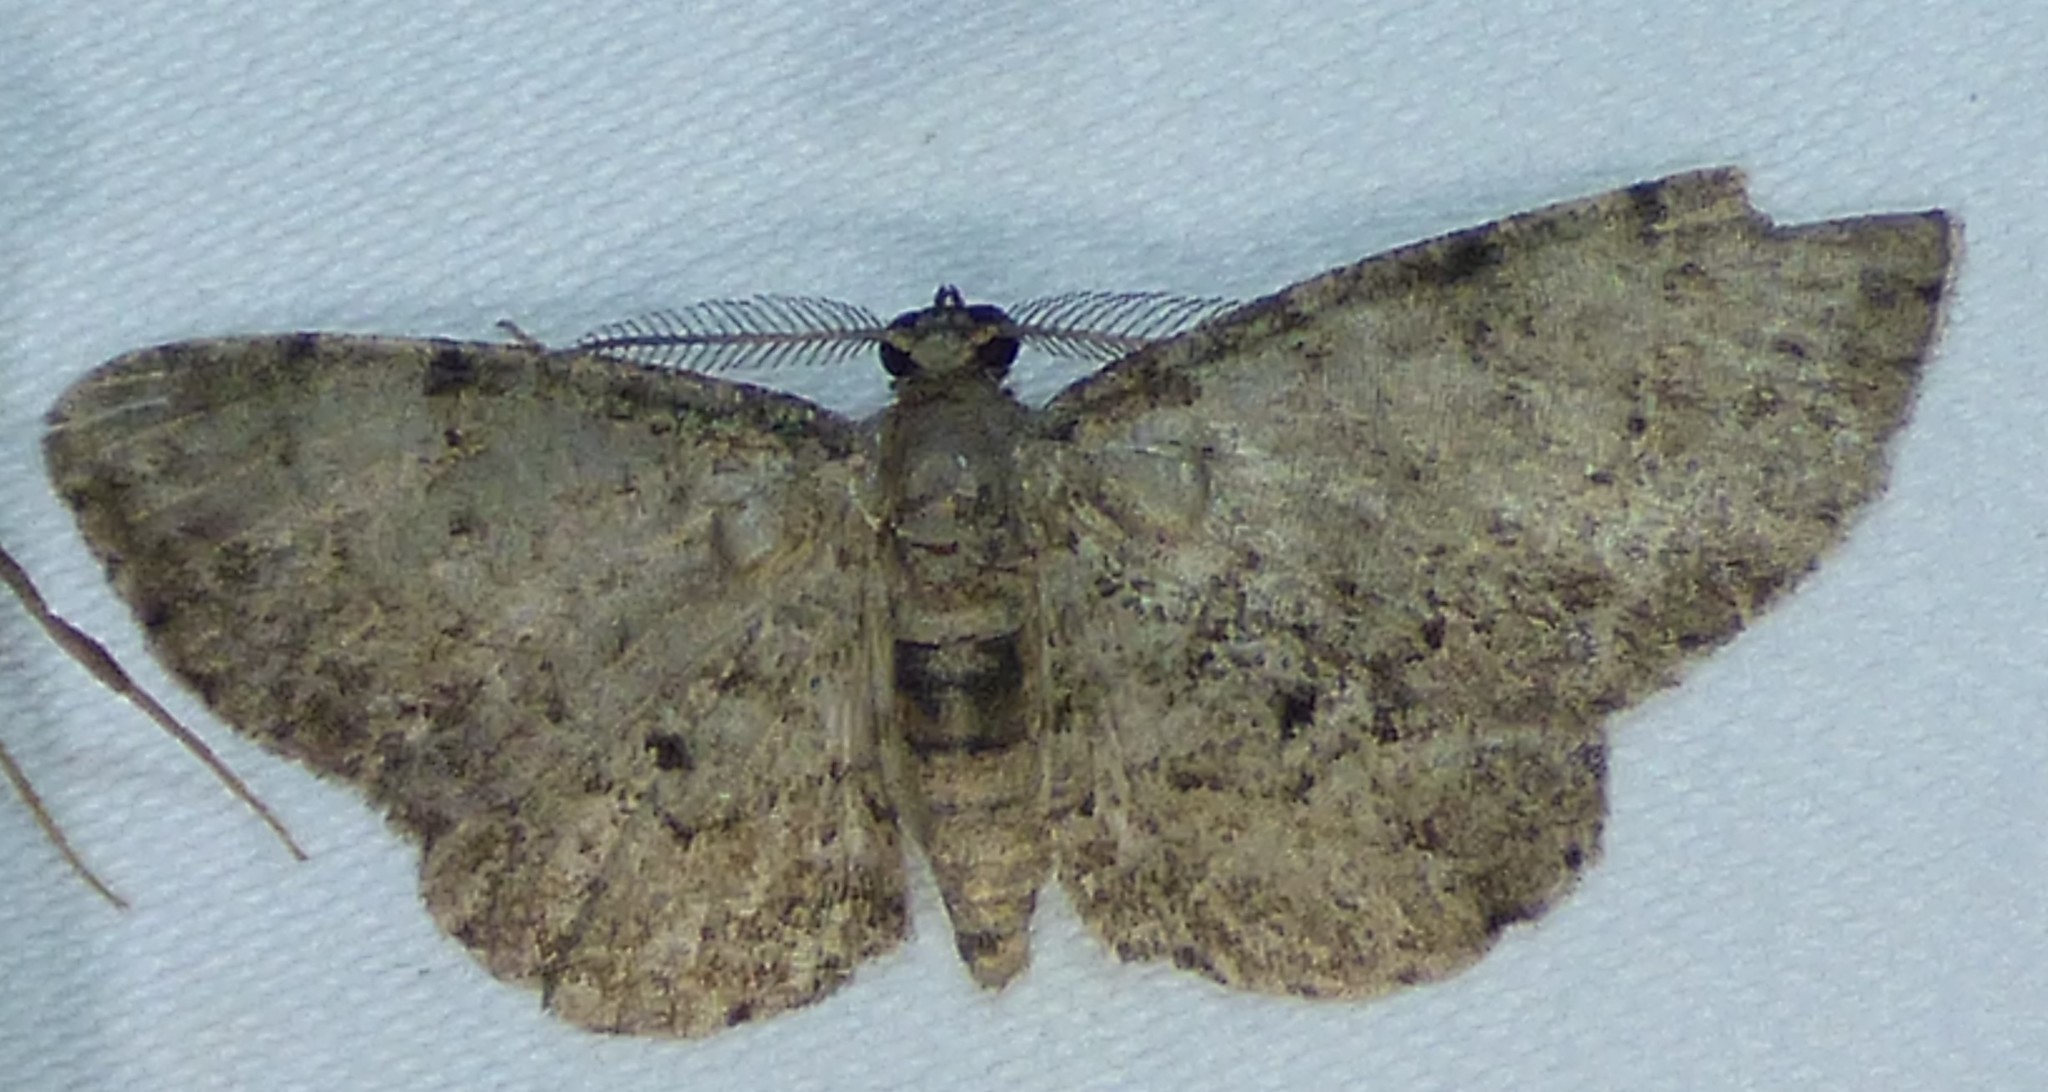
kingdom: Animalia
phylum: Arthropoda
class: Insecta
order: Lepidoptera
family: Geometridae
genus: Glenoides
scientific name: Glenoides texanaria
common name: Texas gray
